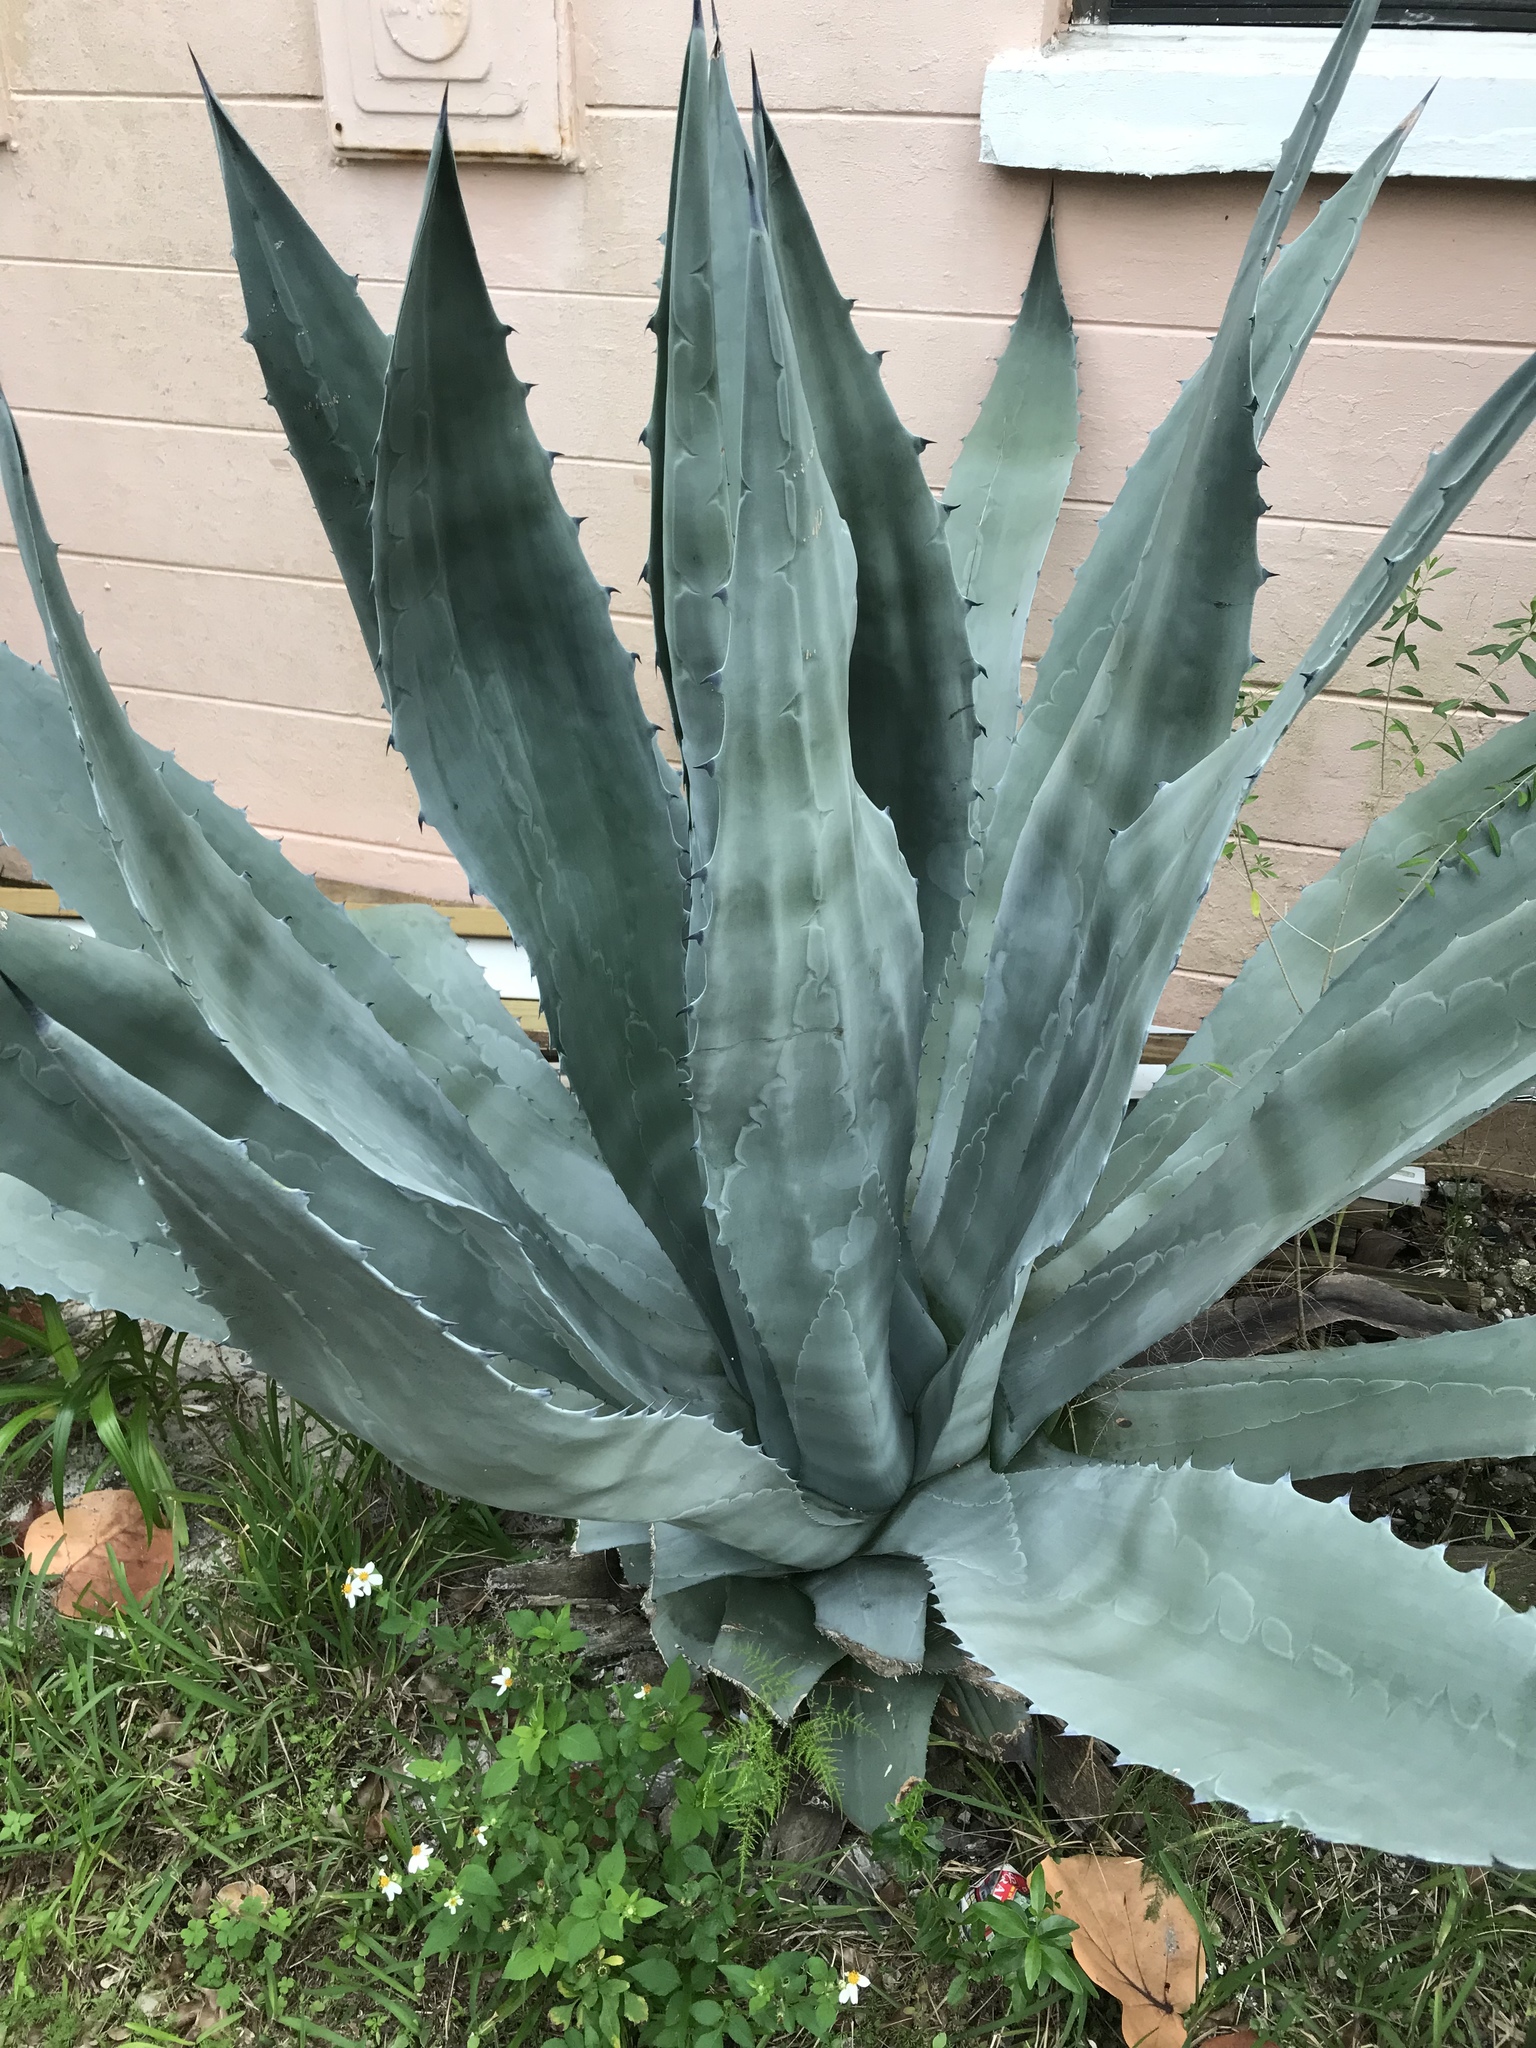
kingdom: Plantae
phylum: Tracheophyta
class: Liliopsida
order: Asparagales
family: Asparagaceae
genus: Agave
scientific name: Agave americana
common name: Centuryplant
